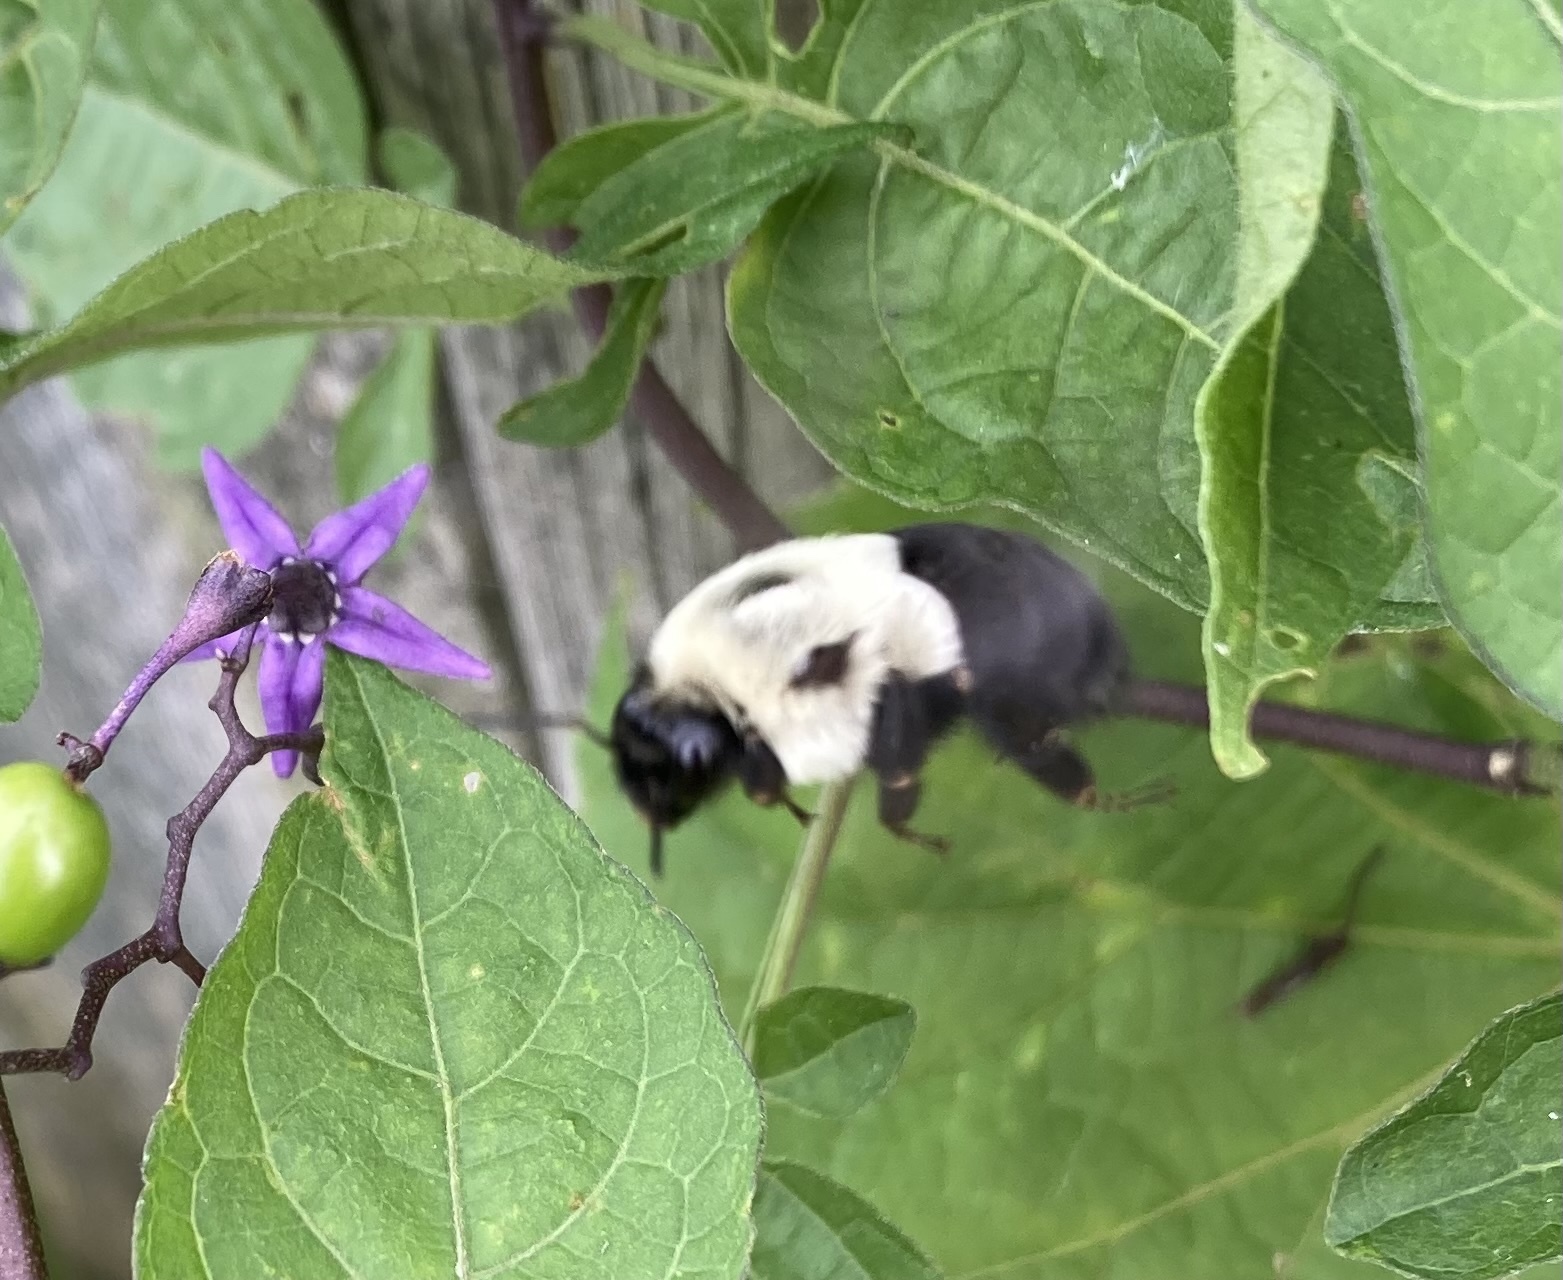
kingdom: Animalia
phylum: Arthropoda
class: Insecta
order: Hymenoptera
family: Apidae
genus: Bombus
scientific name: Bombus impatiens
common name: Common eastern bumble bee
